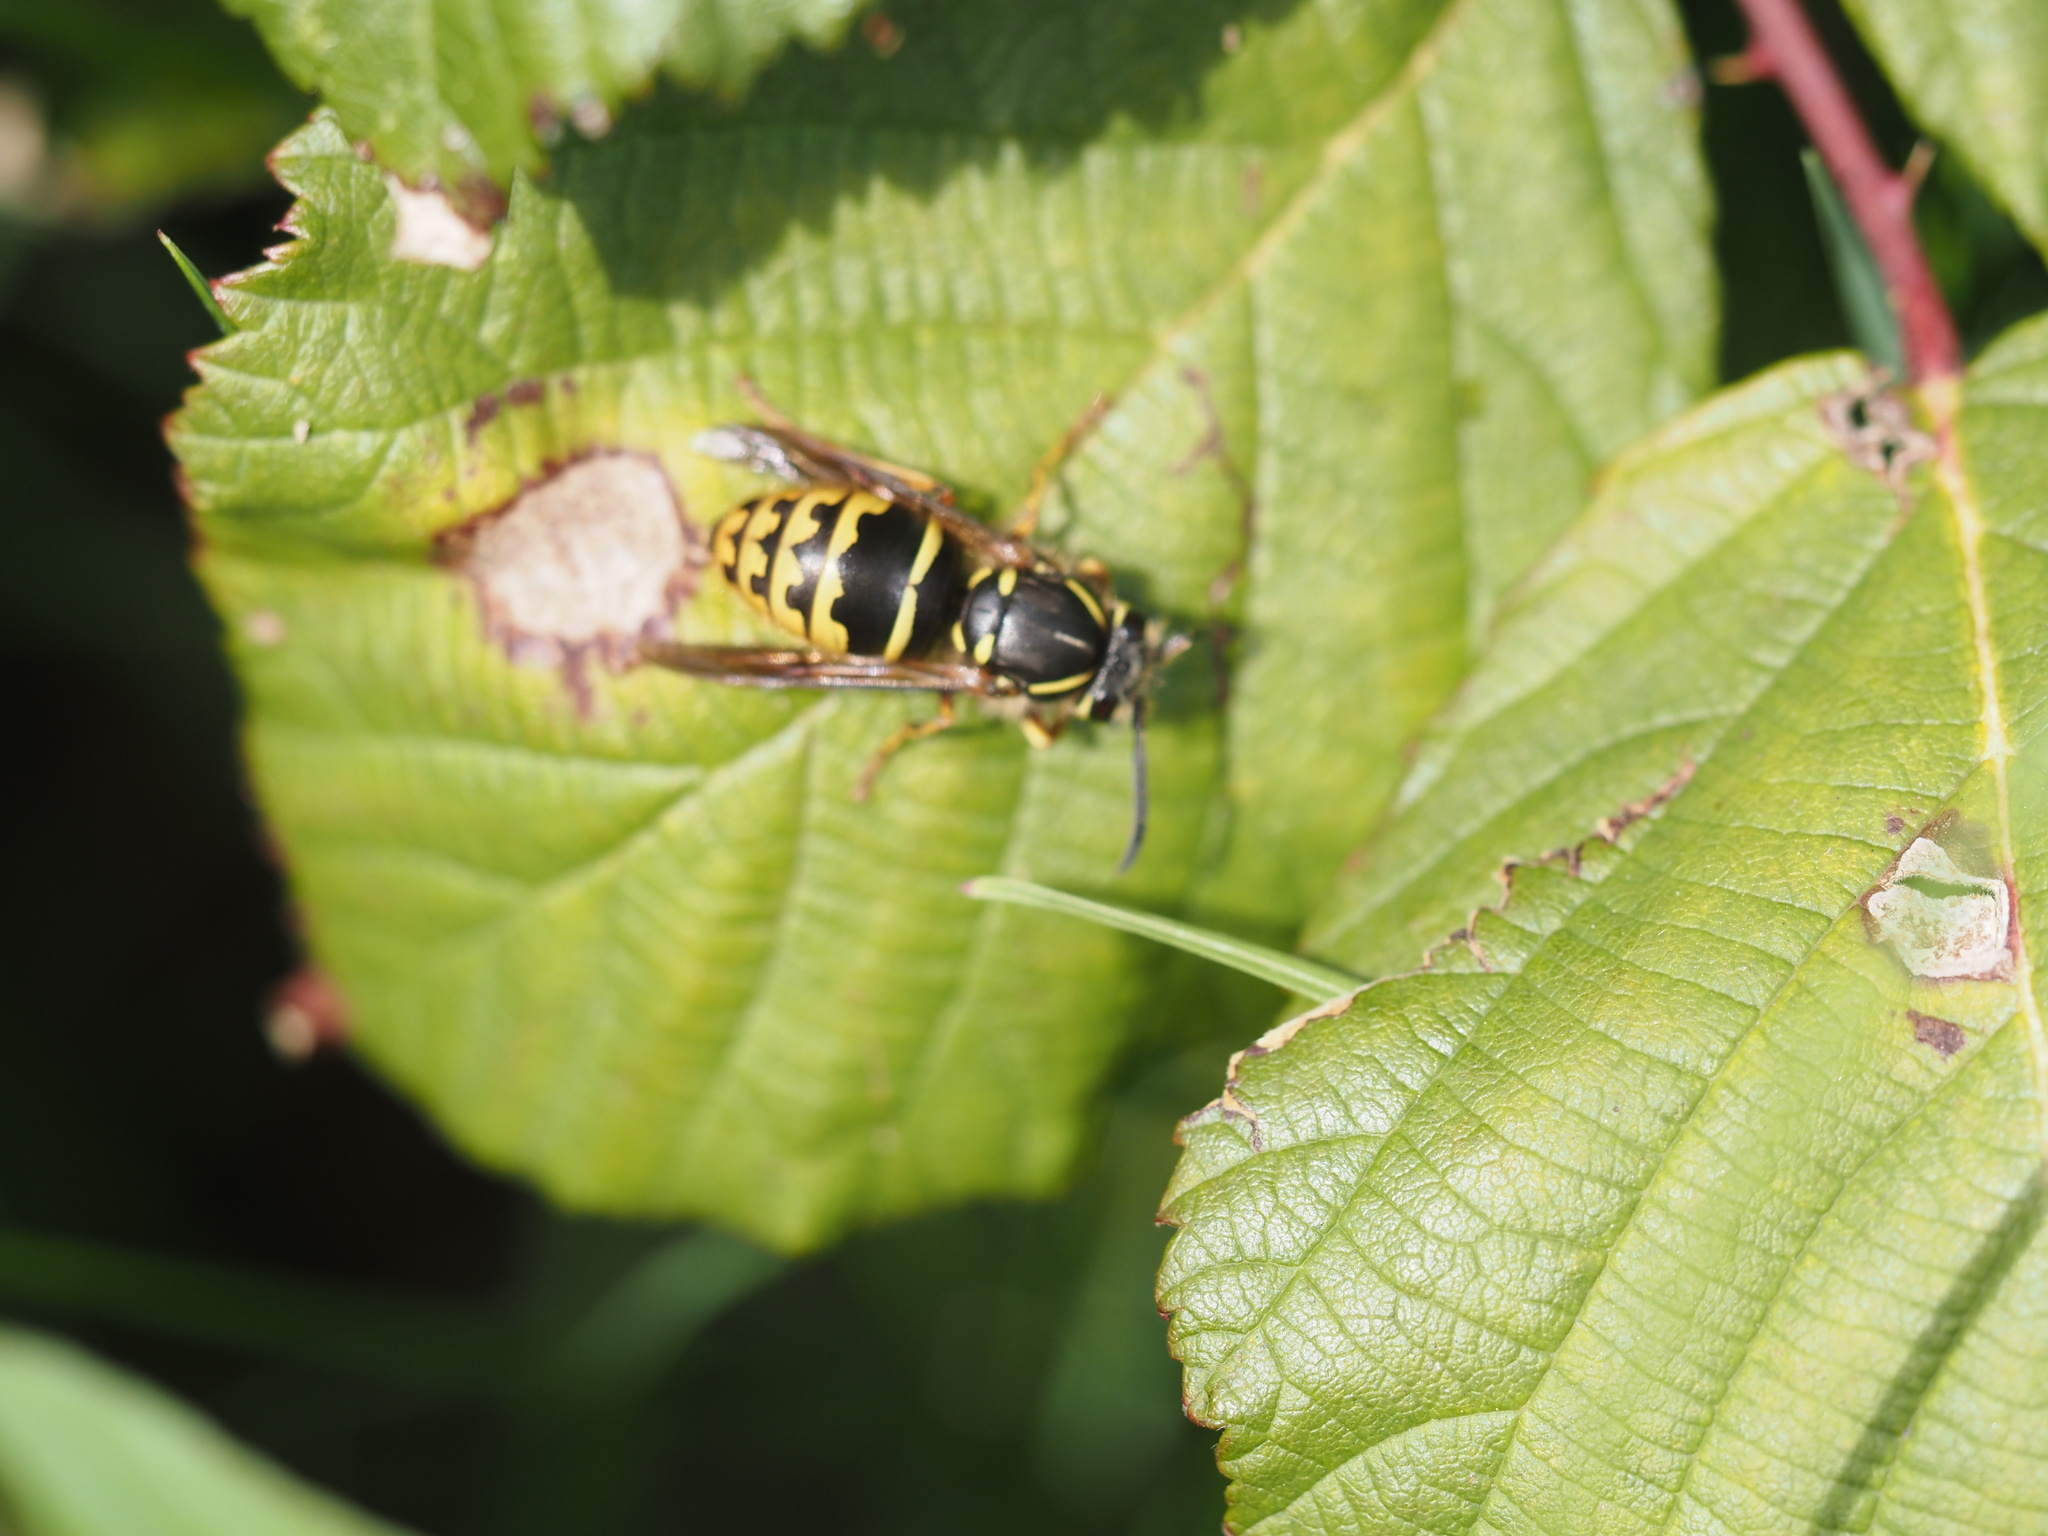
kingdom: Animalia
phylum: Arthropoda
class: Insecta
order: Hymenoptera
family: Vespidae
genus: Vespula
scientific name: Vespula alascensis
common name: Alaska yellowjacket
